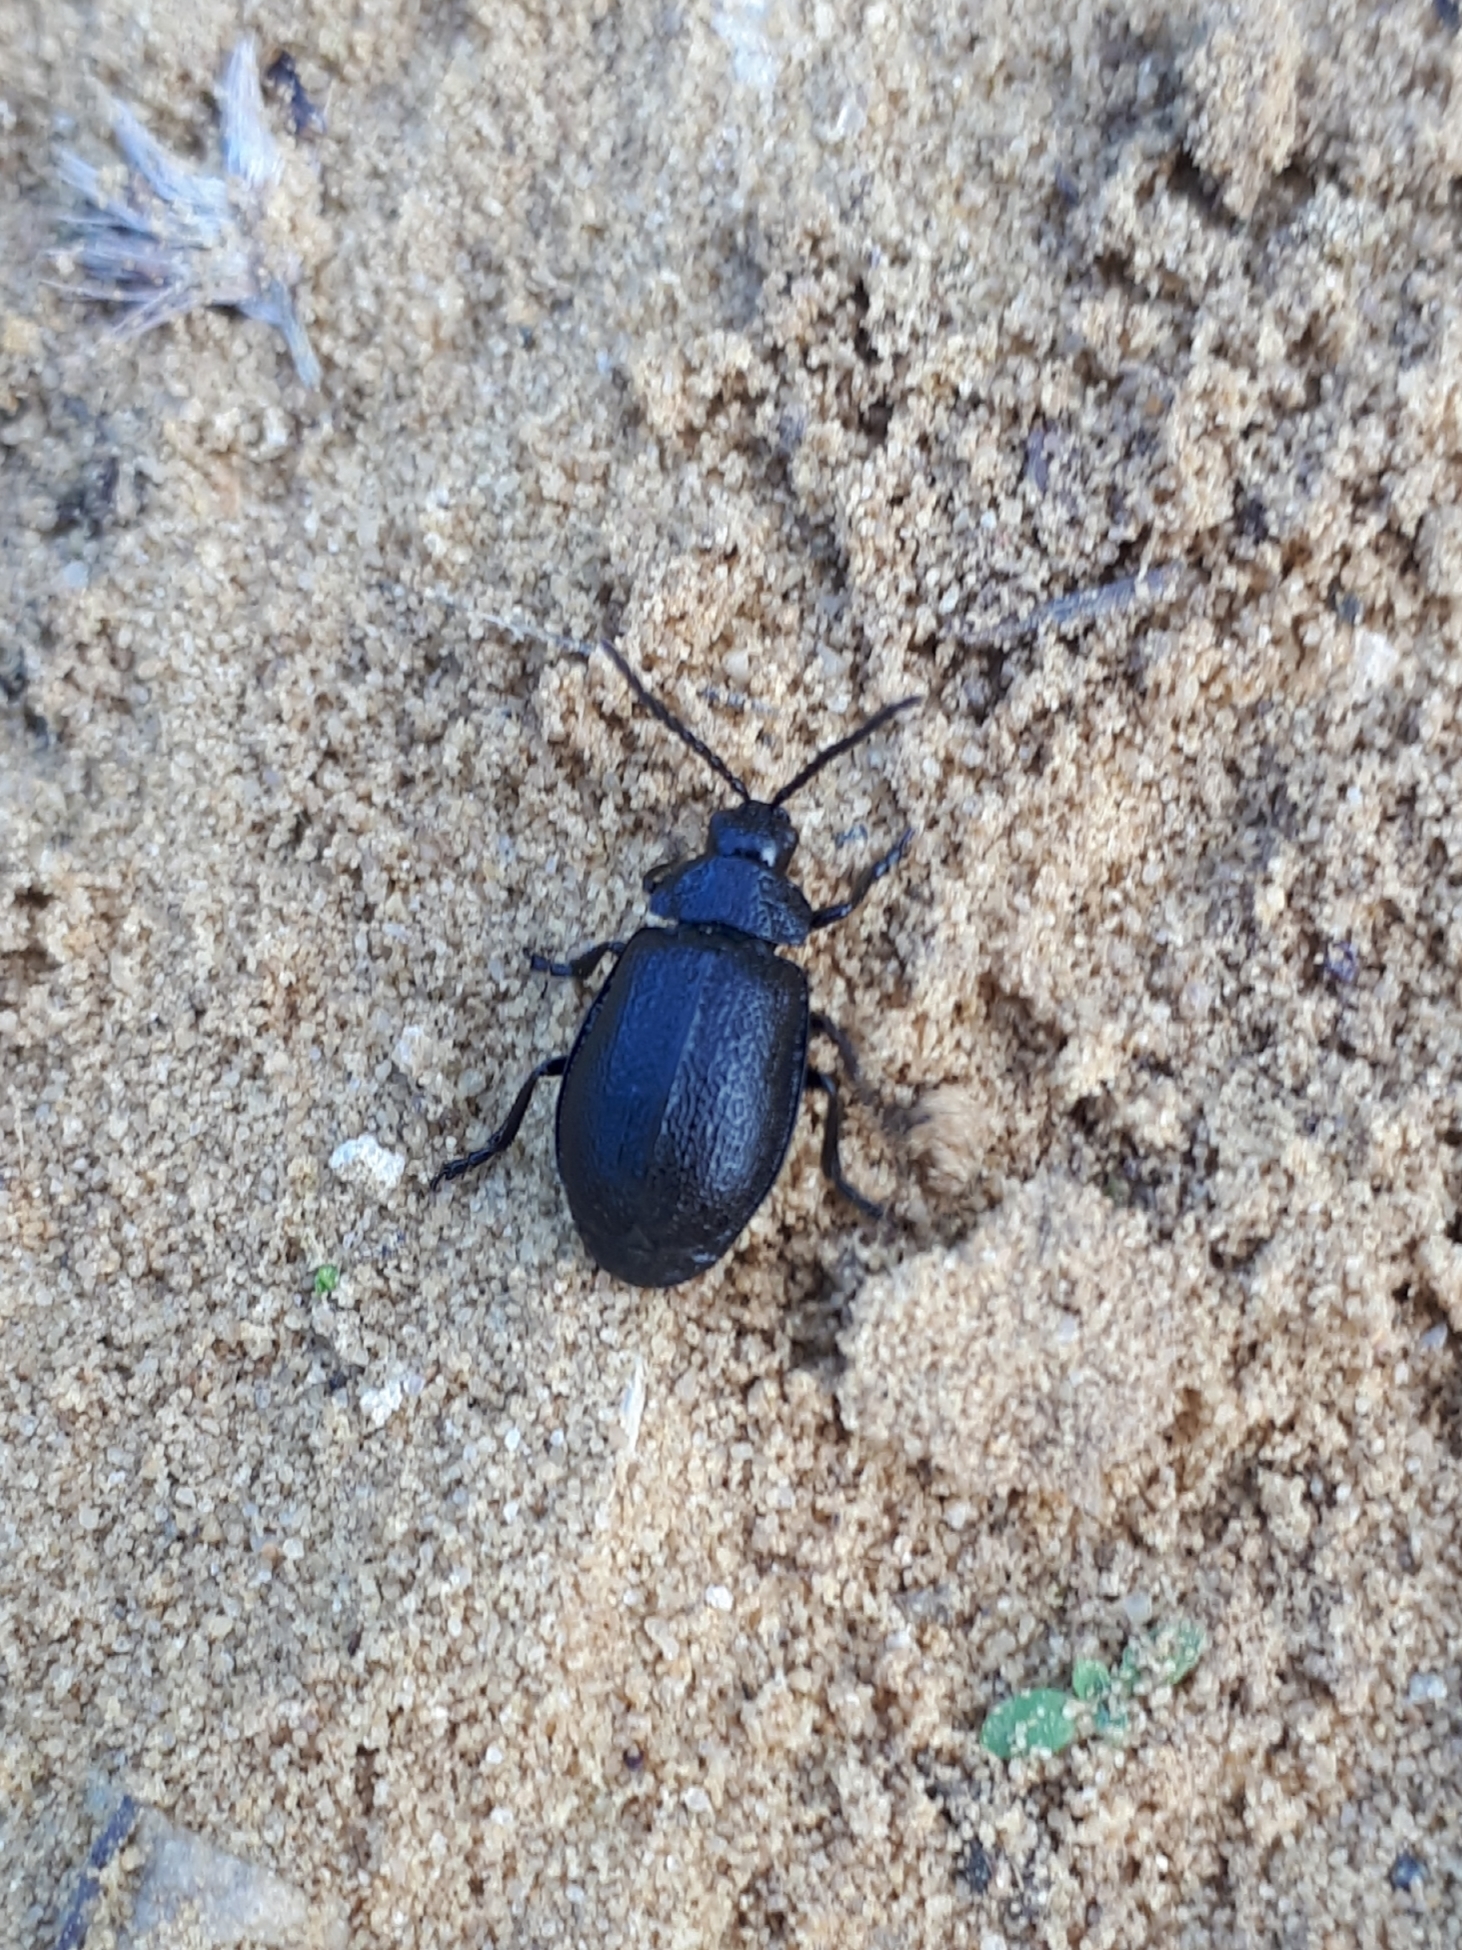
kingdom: Animalia
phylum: Arthropoda
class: Insecta
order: Coleoptera
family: Chrysomelidae
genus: Galeruca
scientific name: Galeruca tanaceti
